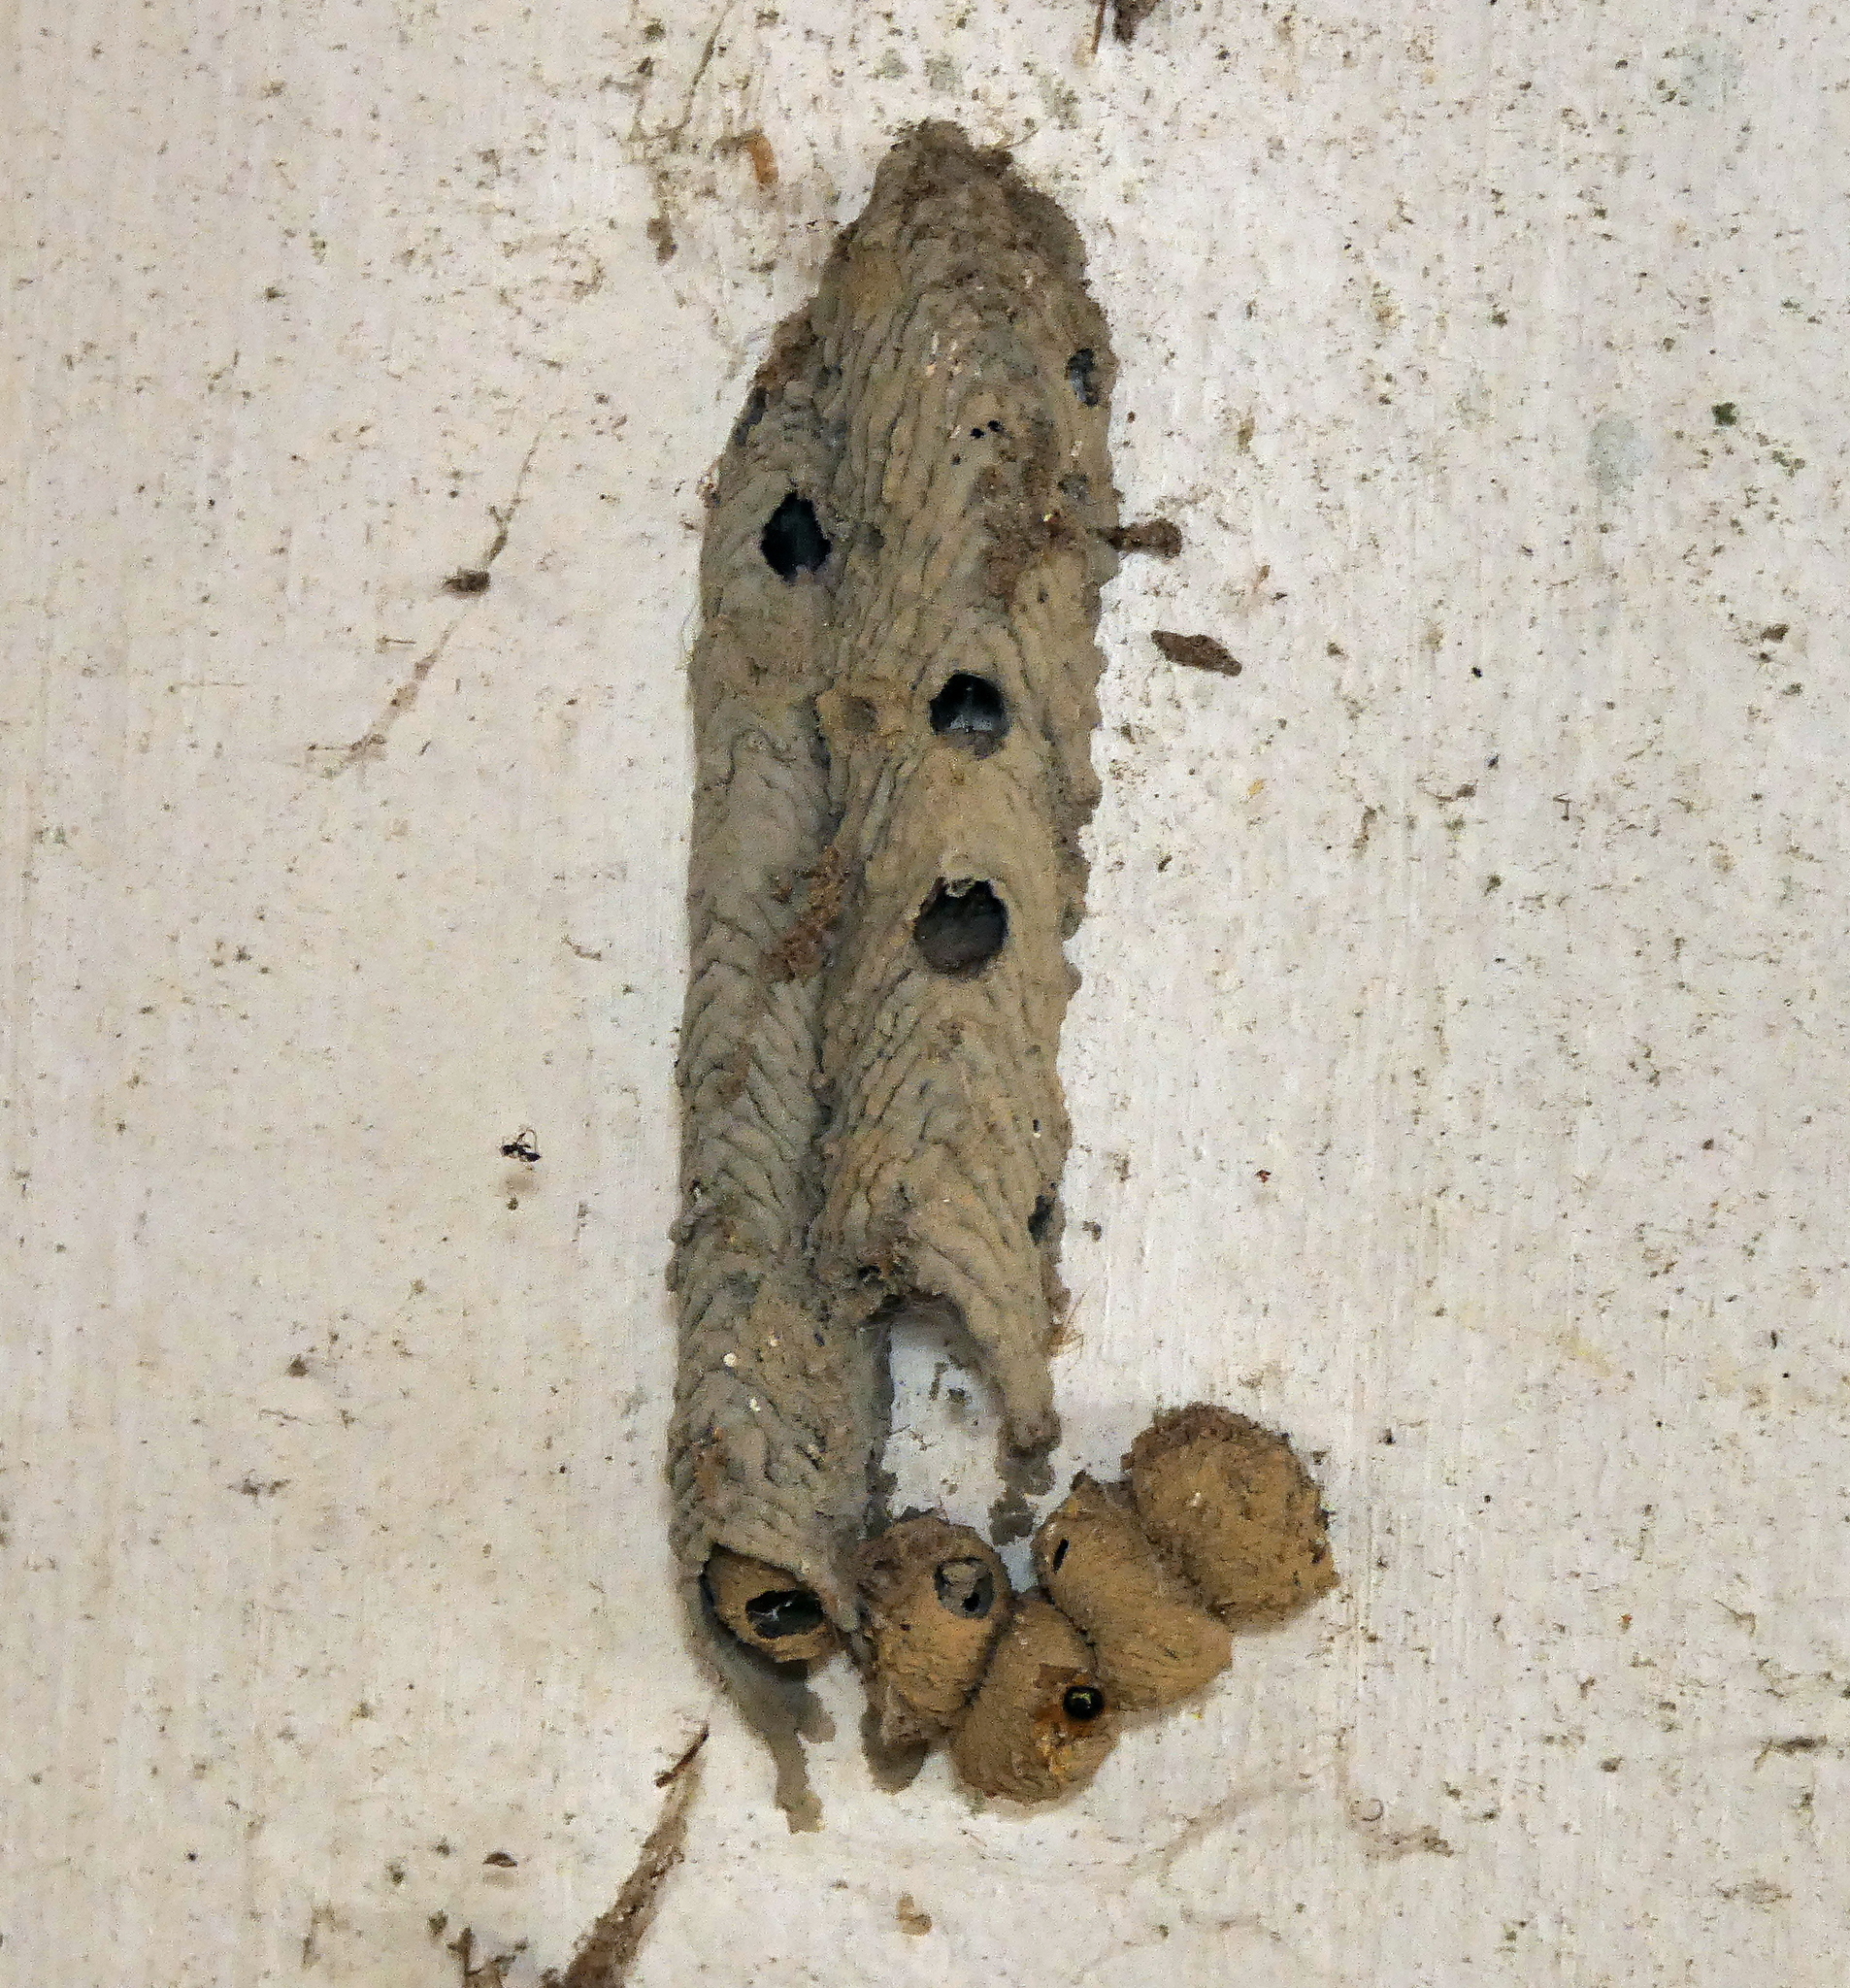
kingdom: Animalia
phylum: Arthropoda
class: Insecta
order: Hymenoptera
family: Crabronidae
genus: Trypoxylon
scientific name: Trypoxylon albitarse
